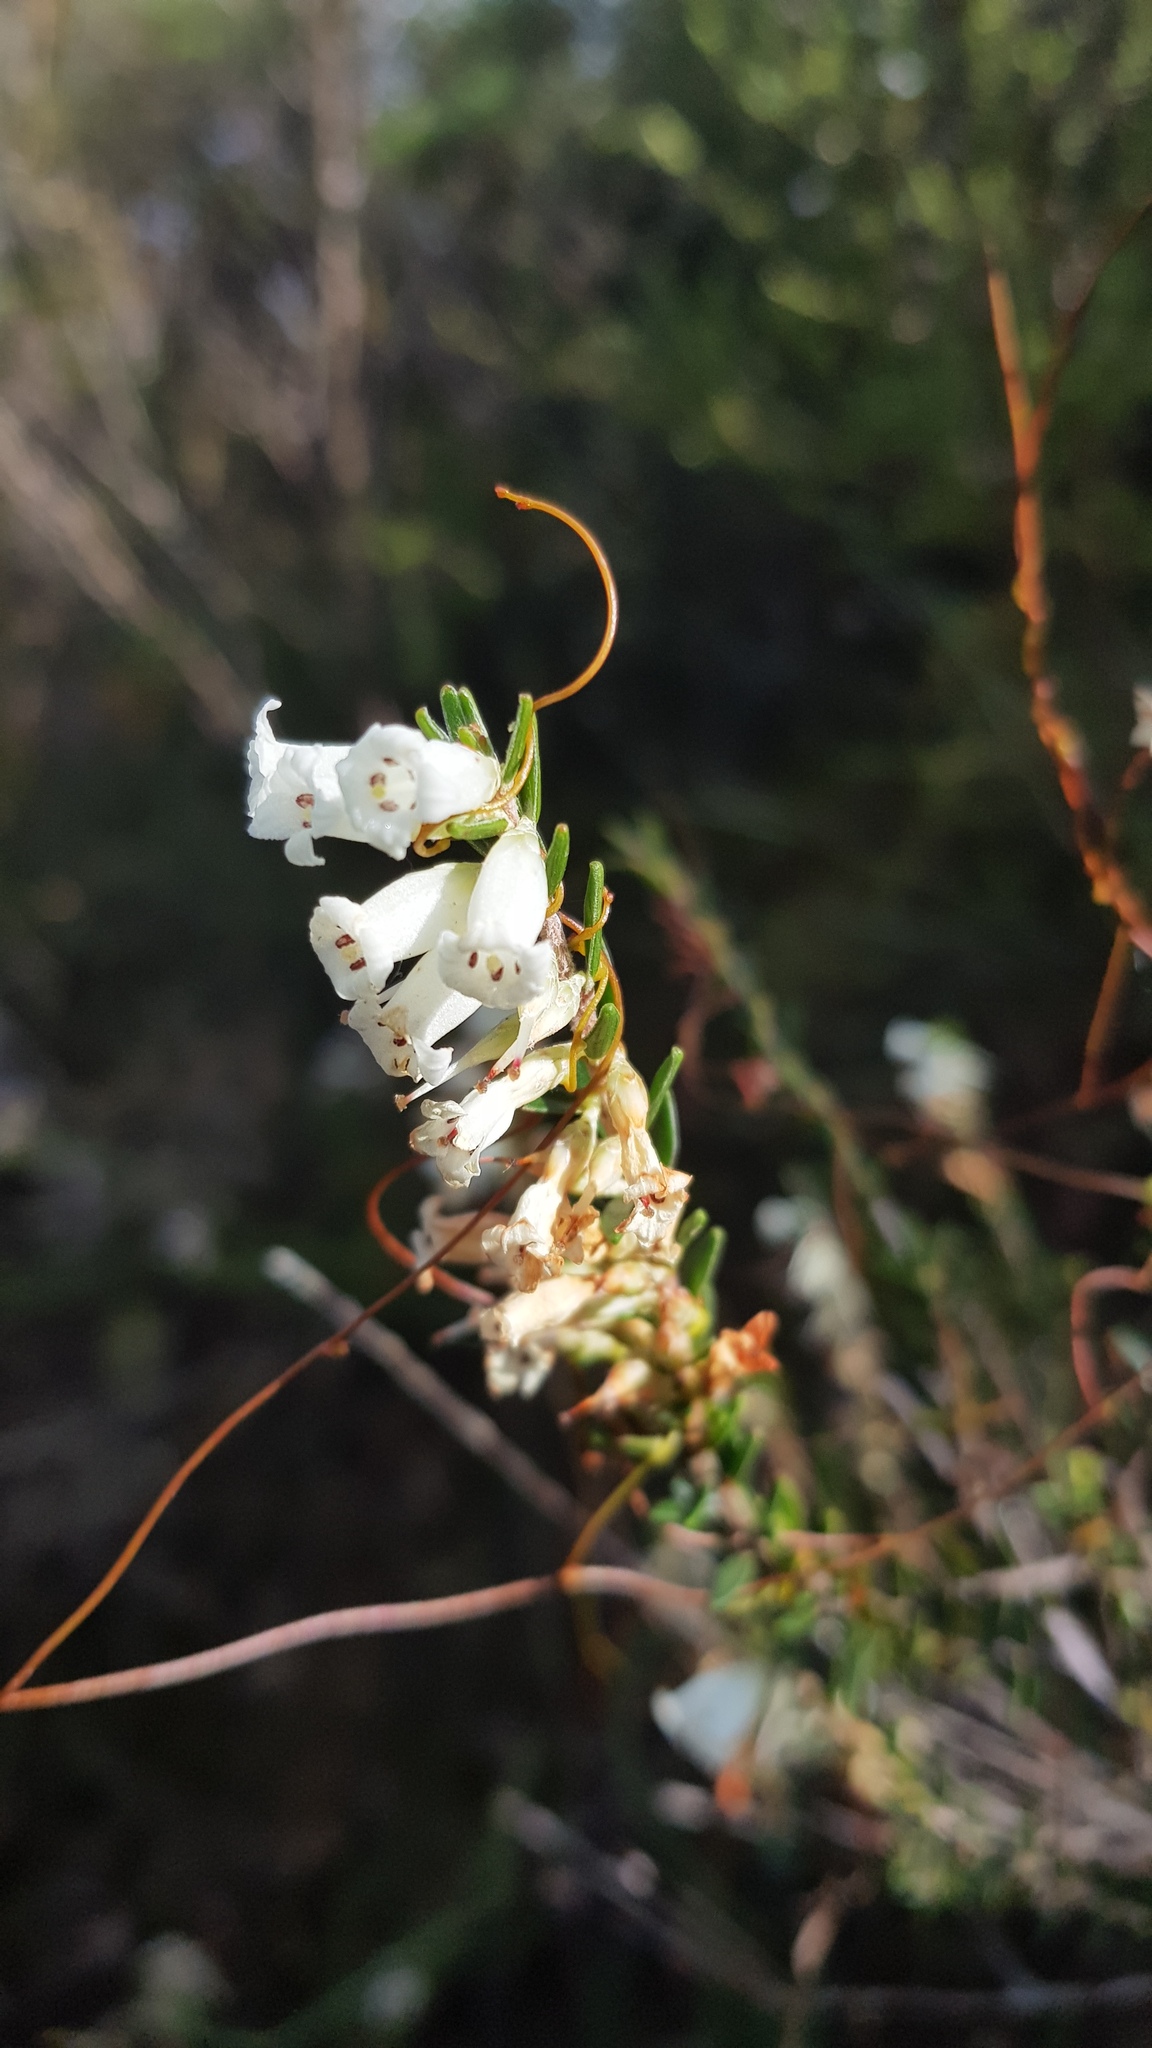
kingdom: Plantae
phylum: Tracheophyta
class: Magnoliopsida
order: Ericales
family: Ericaceae
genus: Epacris
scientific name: Epacris obtusifolia
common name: Blunt-leaf australian-heath
